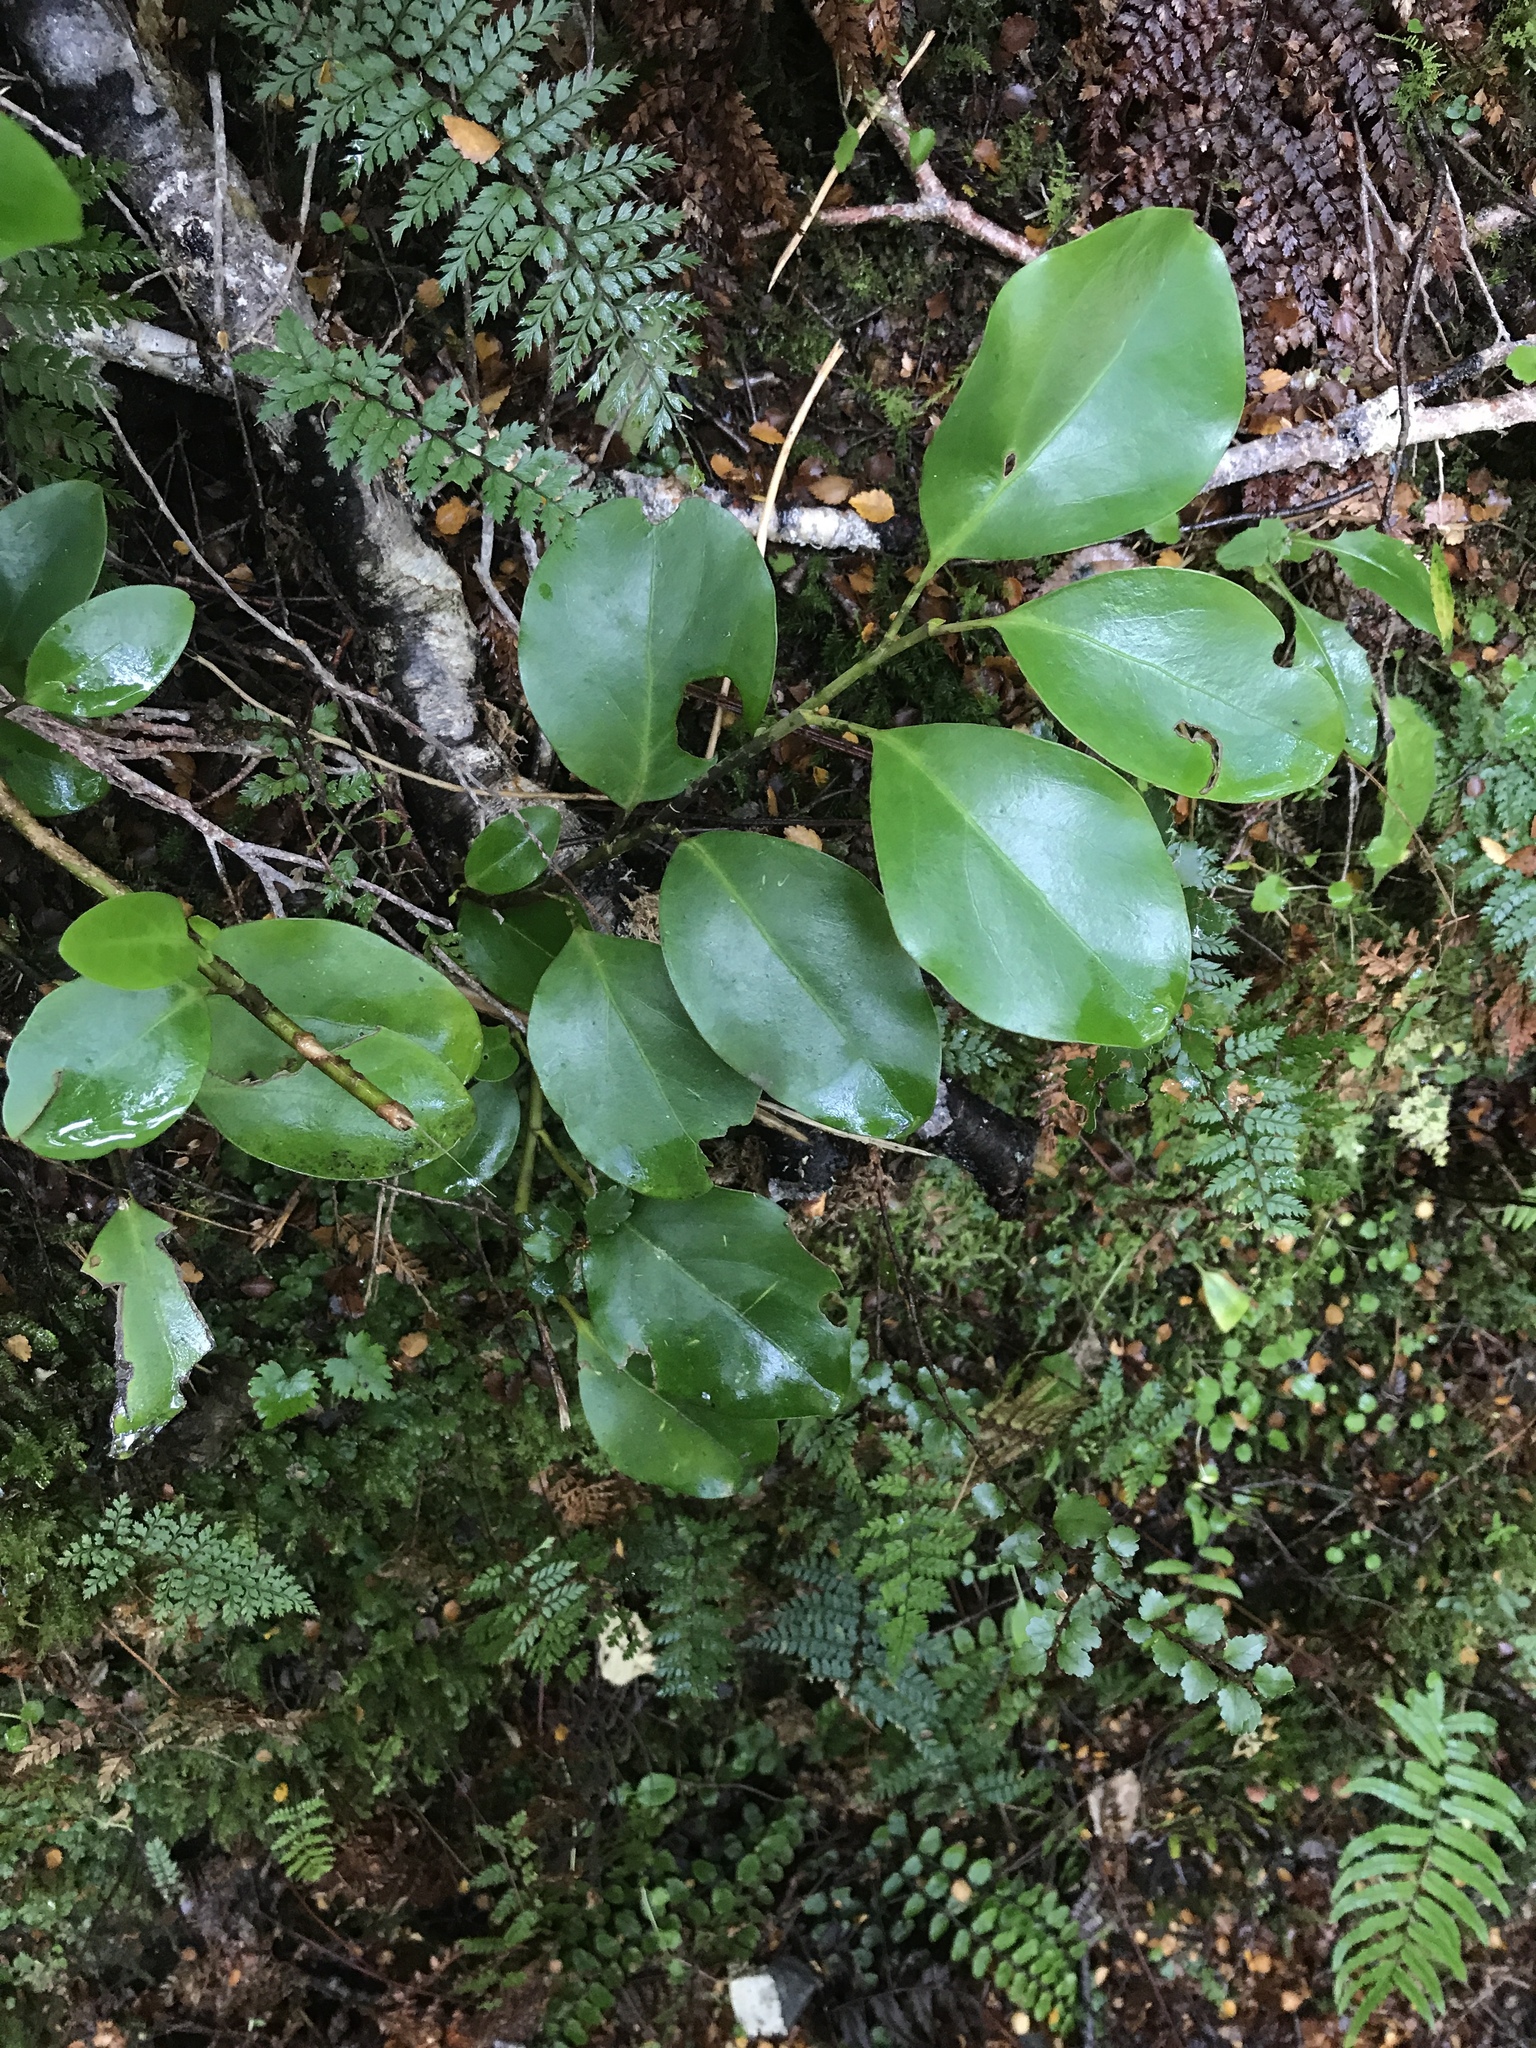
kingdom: Plantae
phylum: Tracheophyta
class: Magnoliopsida
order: Apiales
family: Griseliniaceae
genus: Griselinia
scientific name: Griselinia littoralis
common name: New zealand broadleaf
